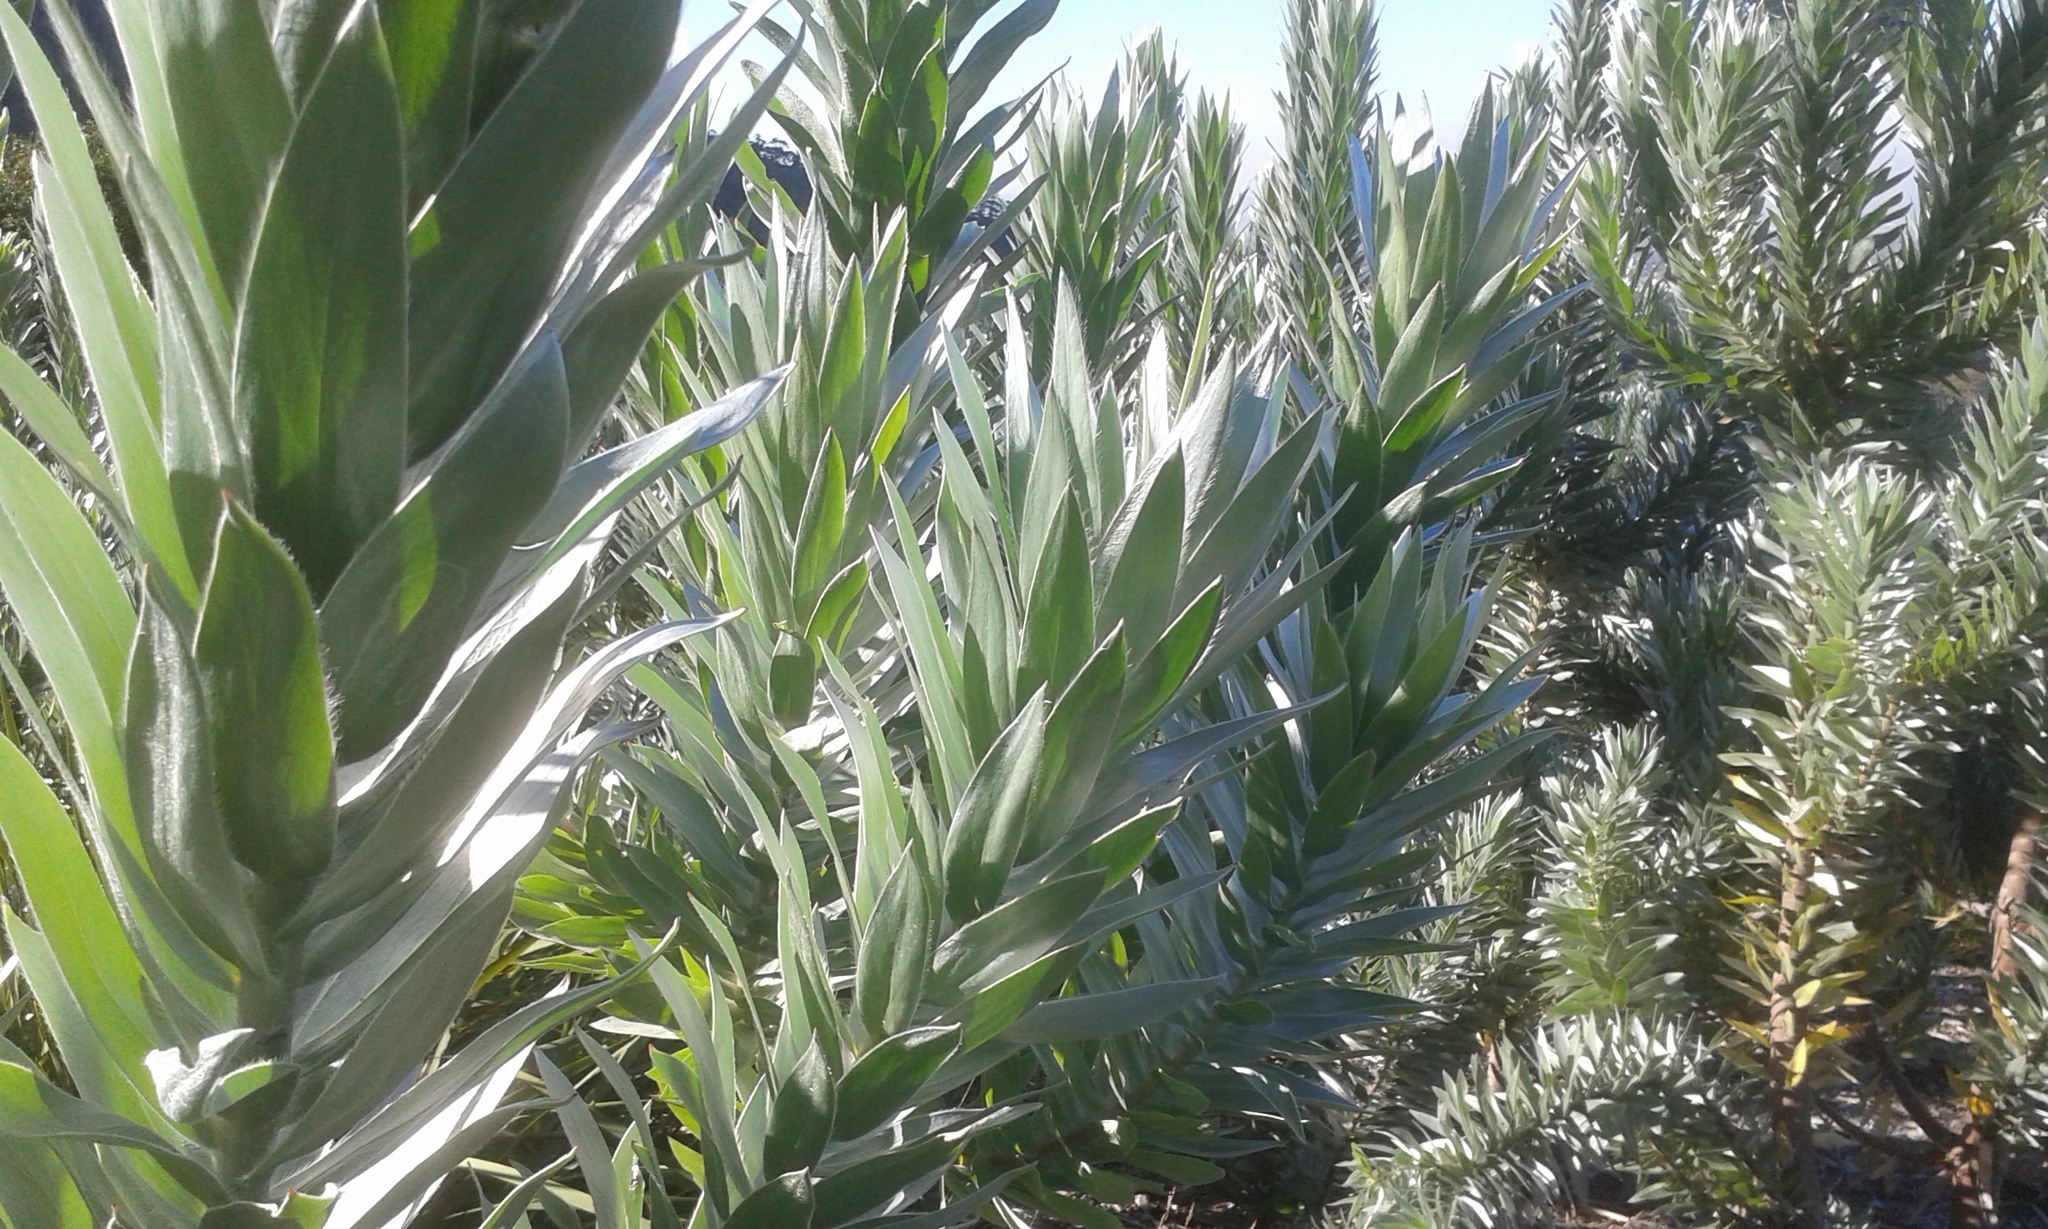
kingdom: Plantae
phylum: Tracheophyta
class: Magnoliopsida
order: Proteales
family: Proteaceae
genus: Leucadendron
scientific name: Leucadendron argenteum
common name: Cape silver tree
